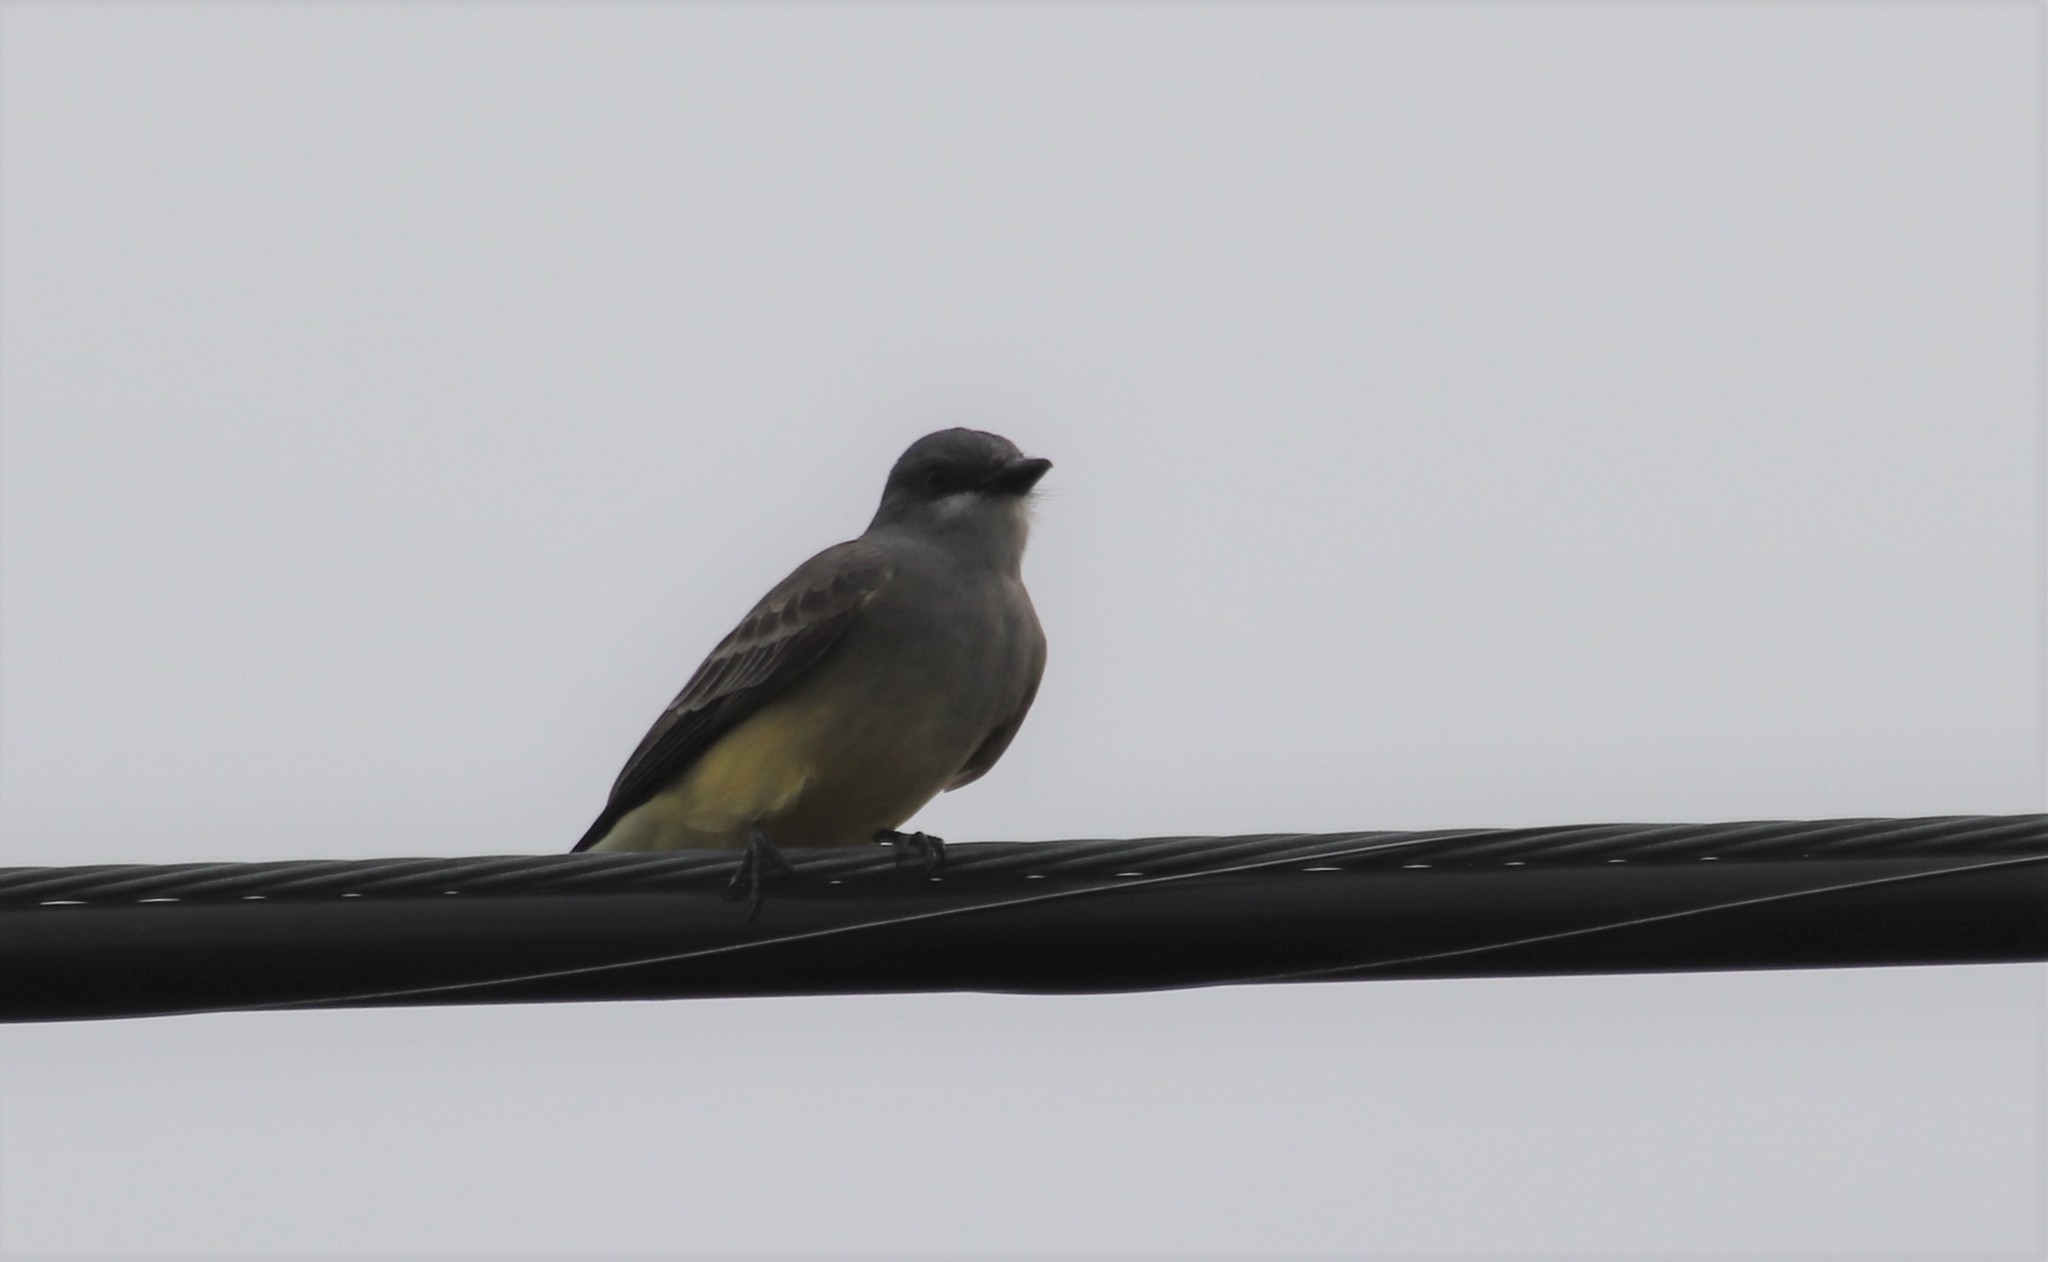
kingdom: Animalia
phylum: Chordata
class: Aves
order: Passeriformes
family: Tyrannidae
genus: Tyrannus
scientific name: Tyrannus vociferans
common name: Cassin's kingbird
